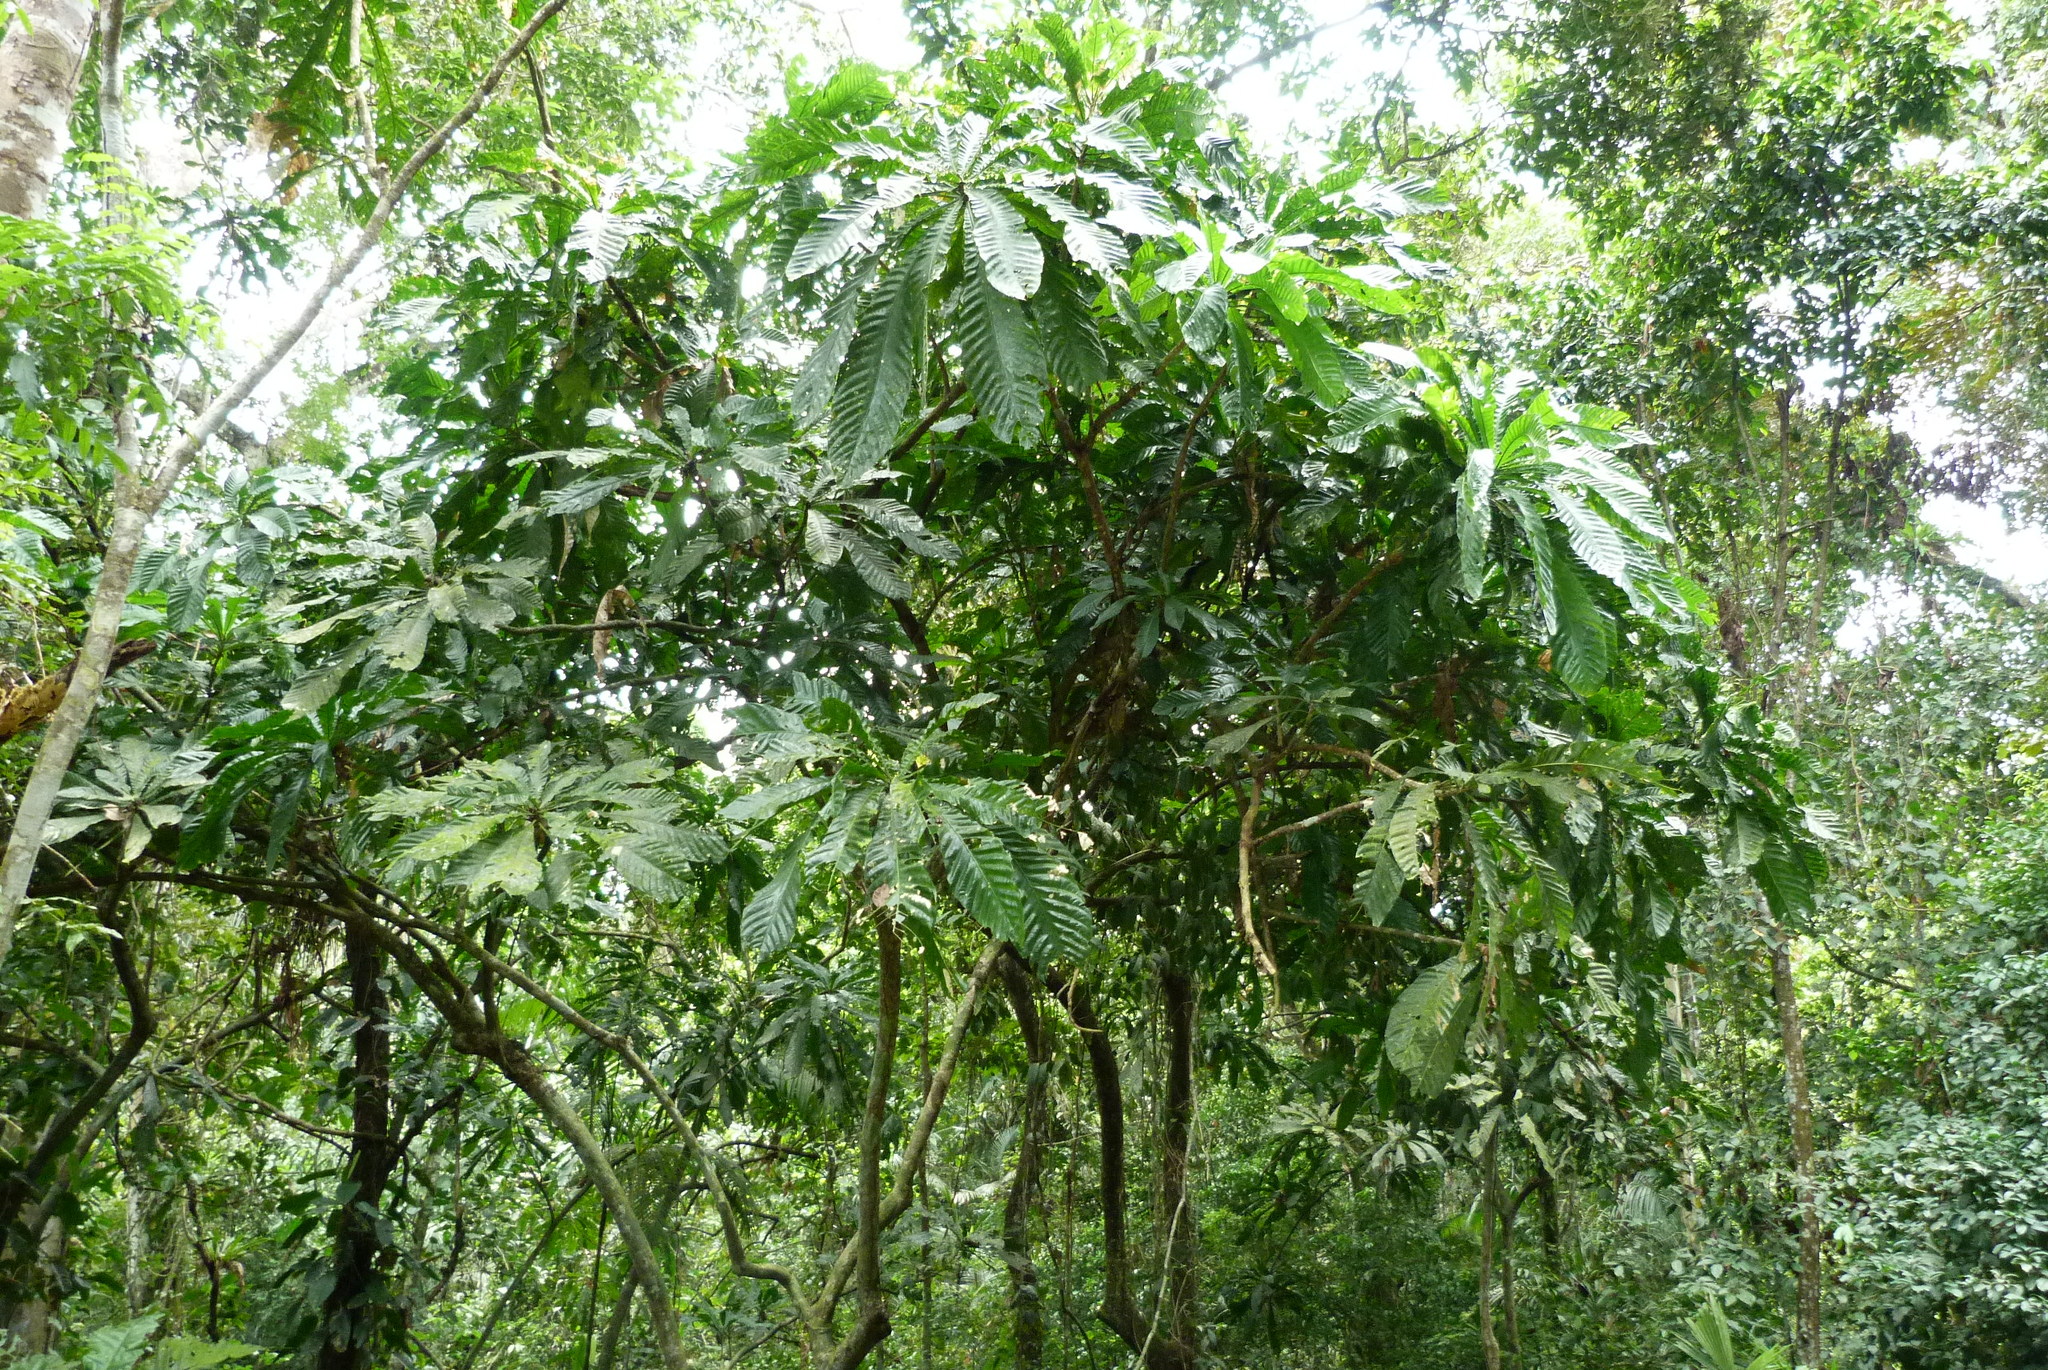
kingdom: Plantae
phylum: Tracheophyta
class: Magnoliopsida
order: Ericales
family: Lecythidaceae
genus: Gustavia
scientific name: Gustavia superba
